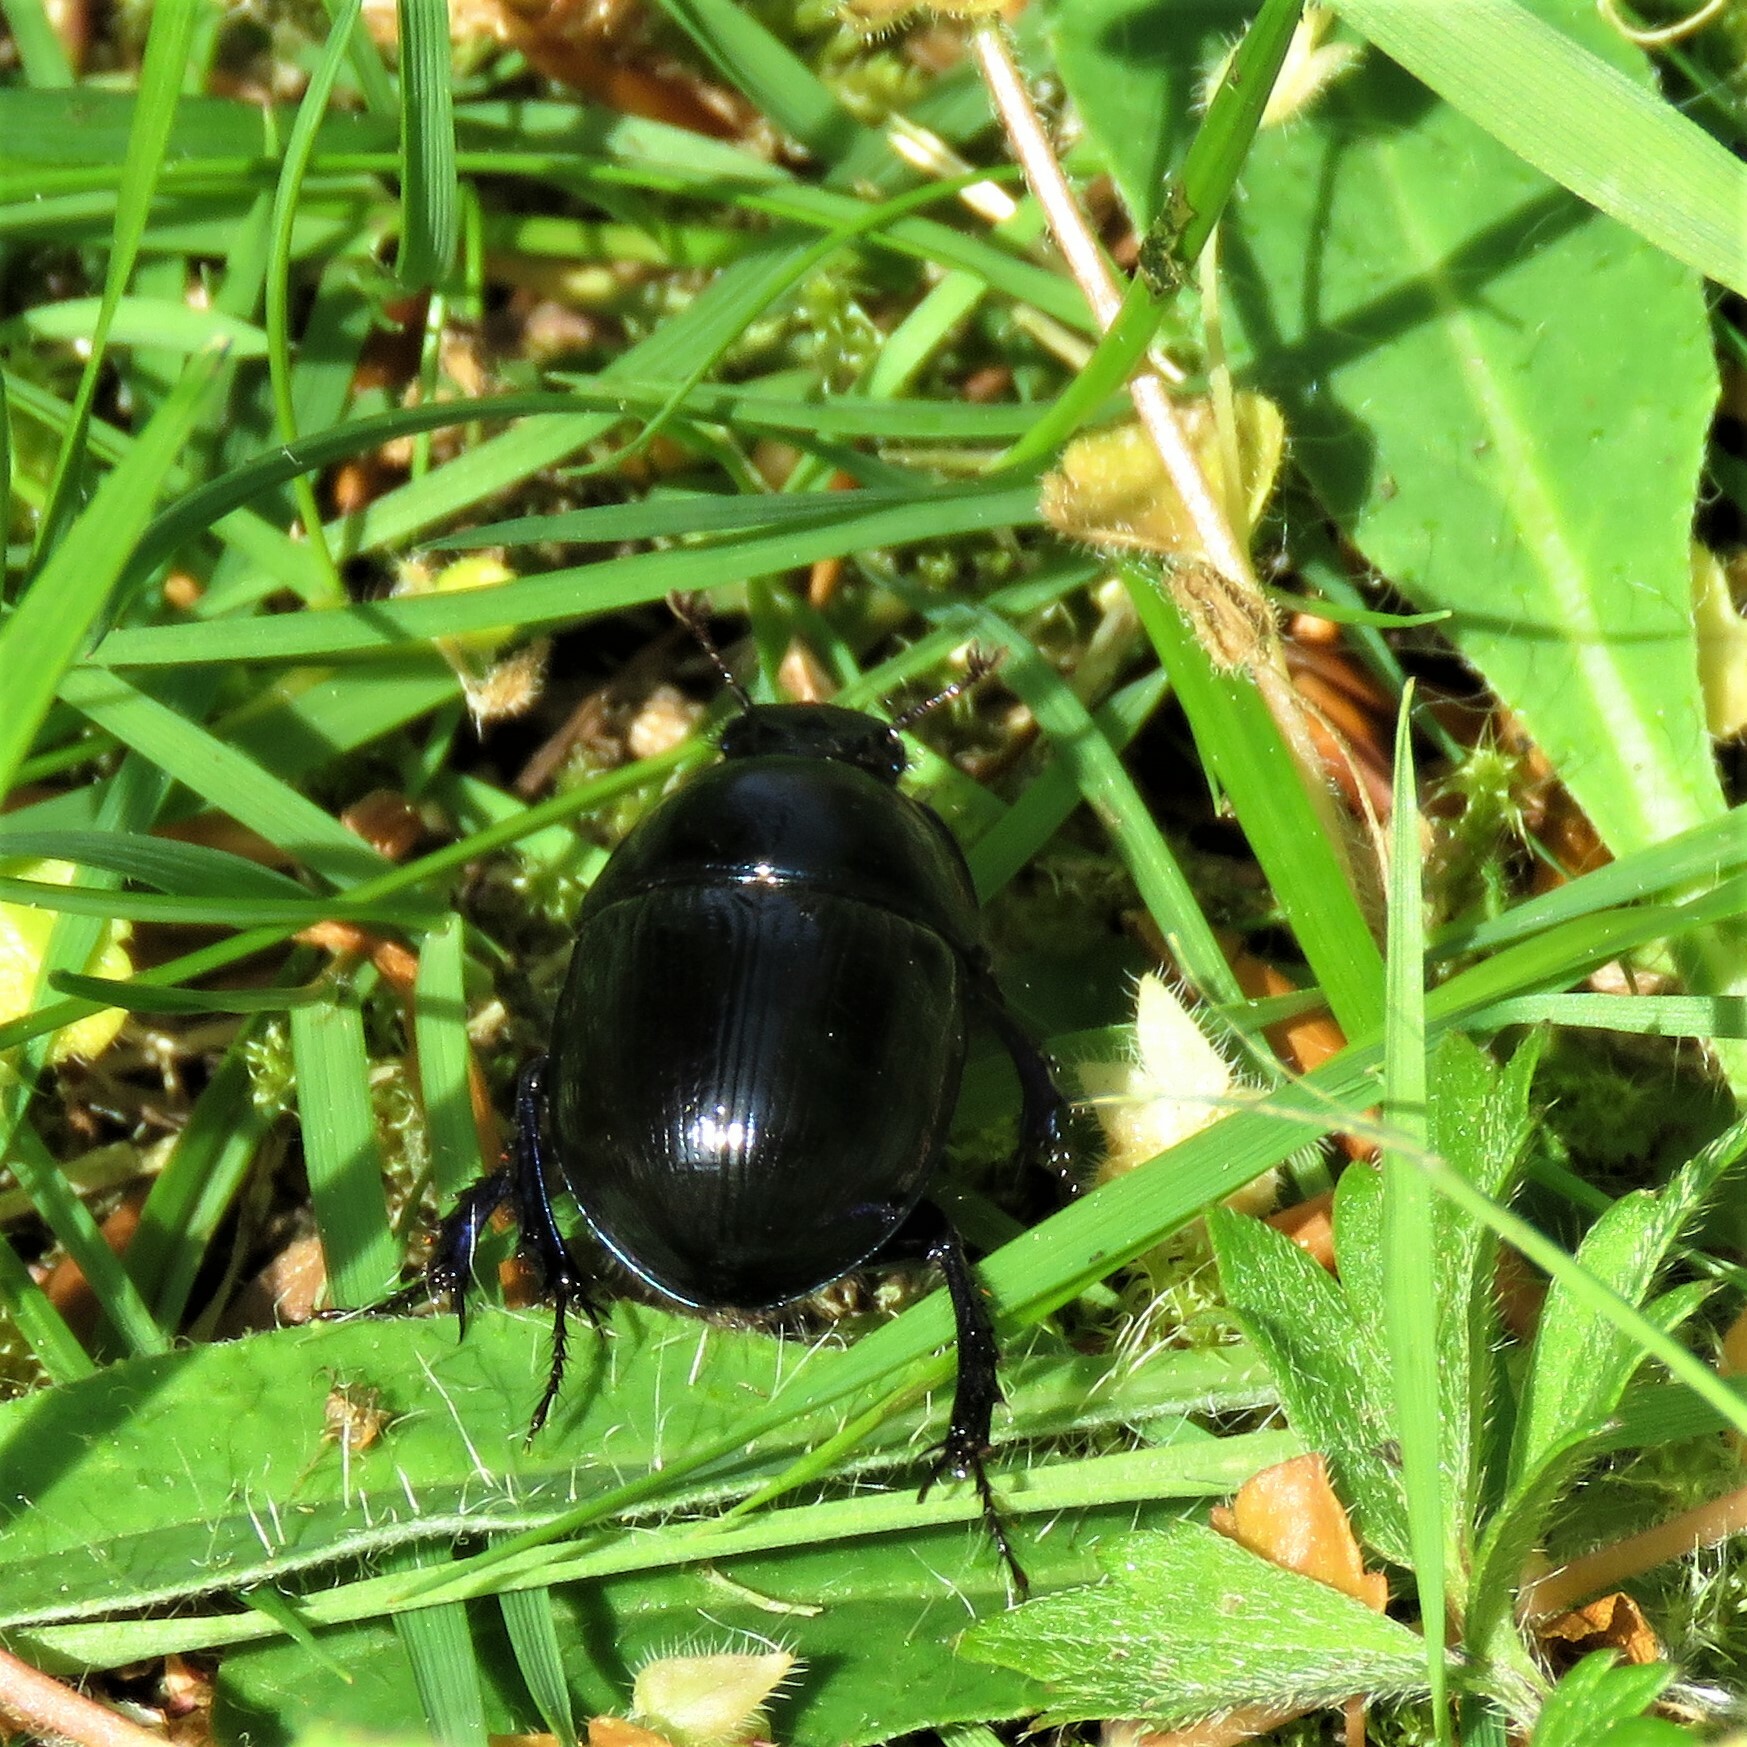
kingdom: Animalia
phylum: Arthropoda
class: Insecta
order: Coleoptera
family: Geotrupidae
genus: Anoplotrupes
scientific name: Anoplotrupes stercorosus
